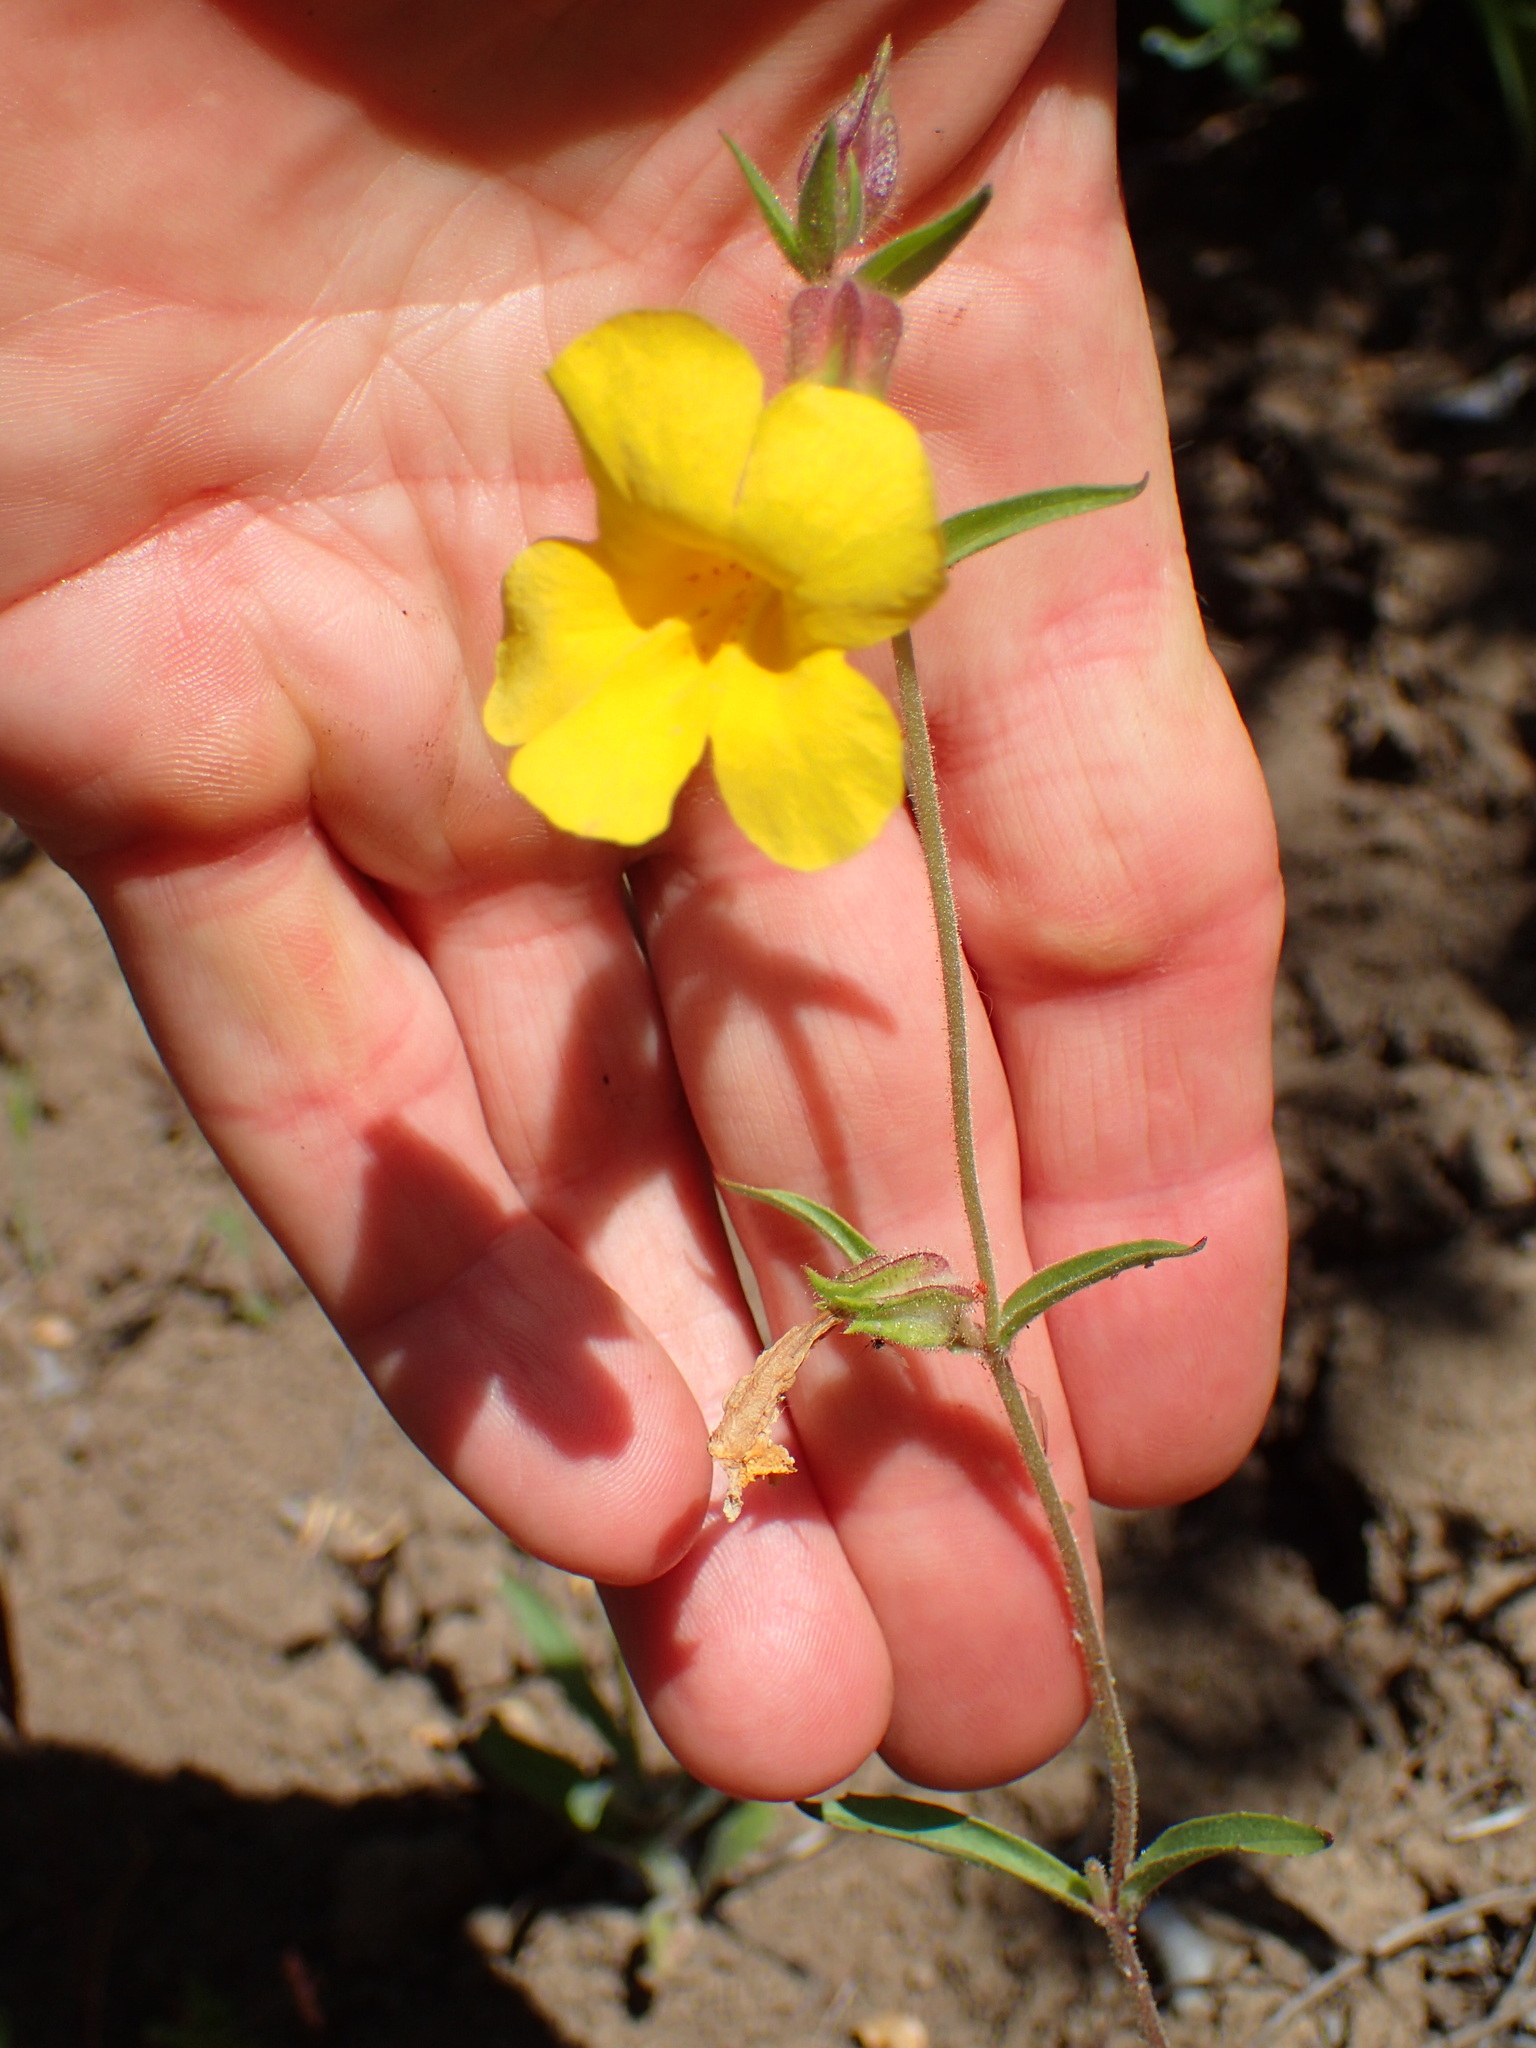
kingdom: Plantae
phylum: Tracheophyta
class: Magnoliopsida
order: Lamiales
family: Phrymaceae
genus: Diplacus
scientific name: Diplacus brevipes
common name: Wide-throat yellow monkey-flower
